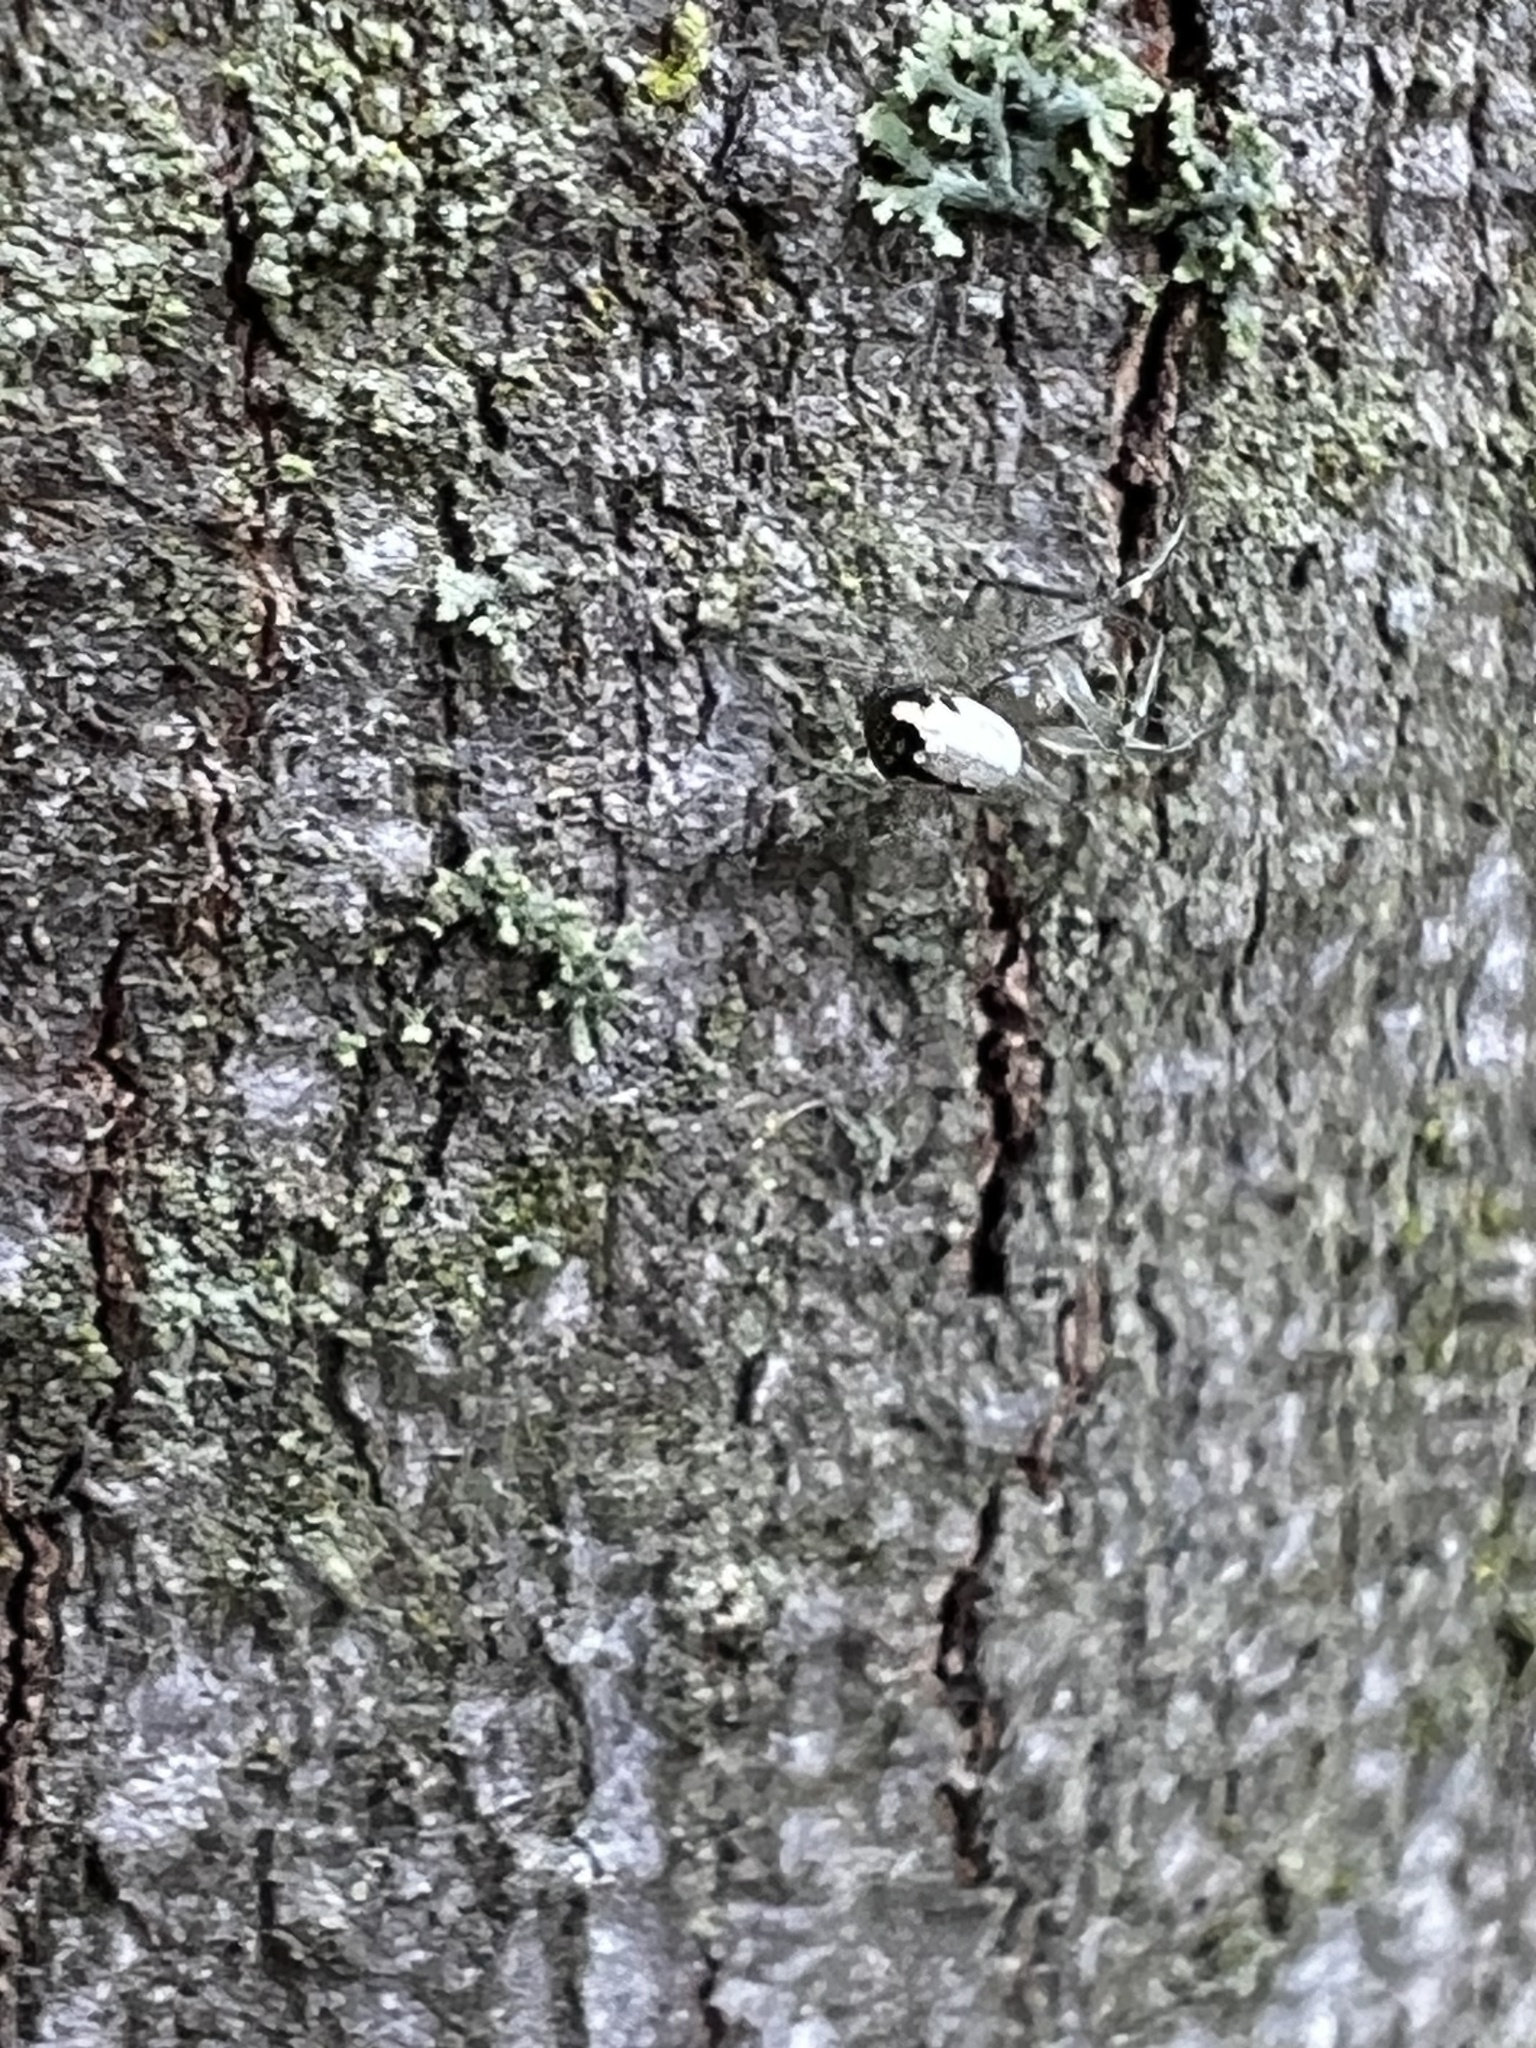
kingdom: Animalia
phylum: Arthropoda
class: Arachnida
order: Araneae
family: Tetragnathidae
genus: Leucauge
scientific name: Leucauge venusta
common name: Longjawed orb weavers
